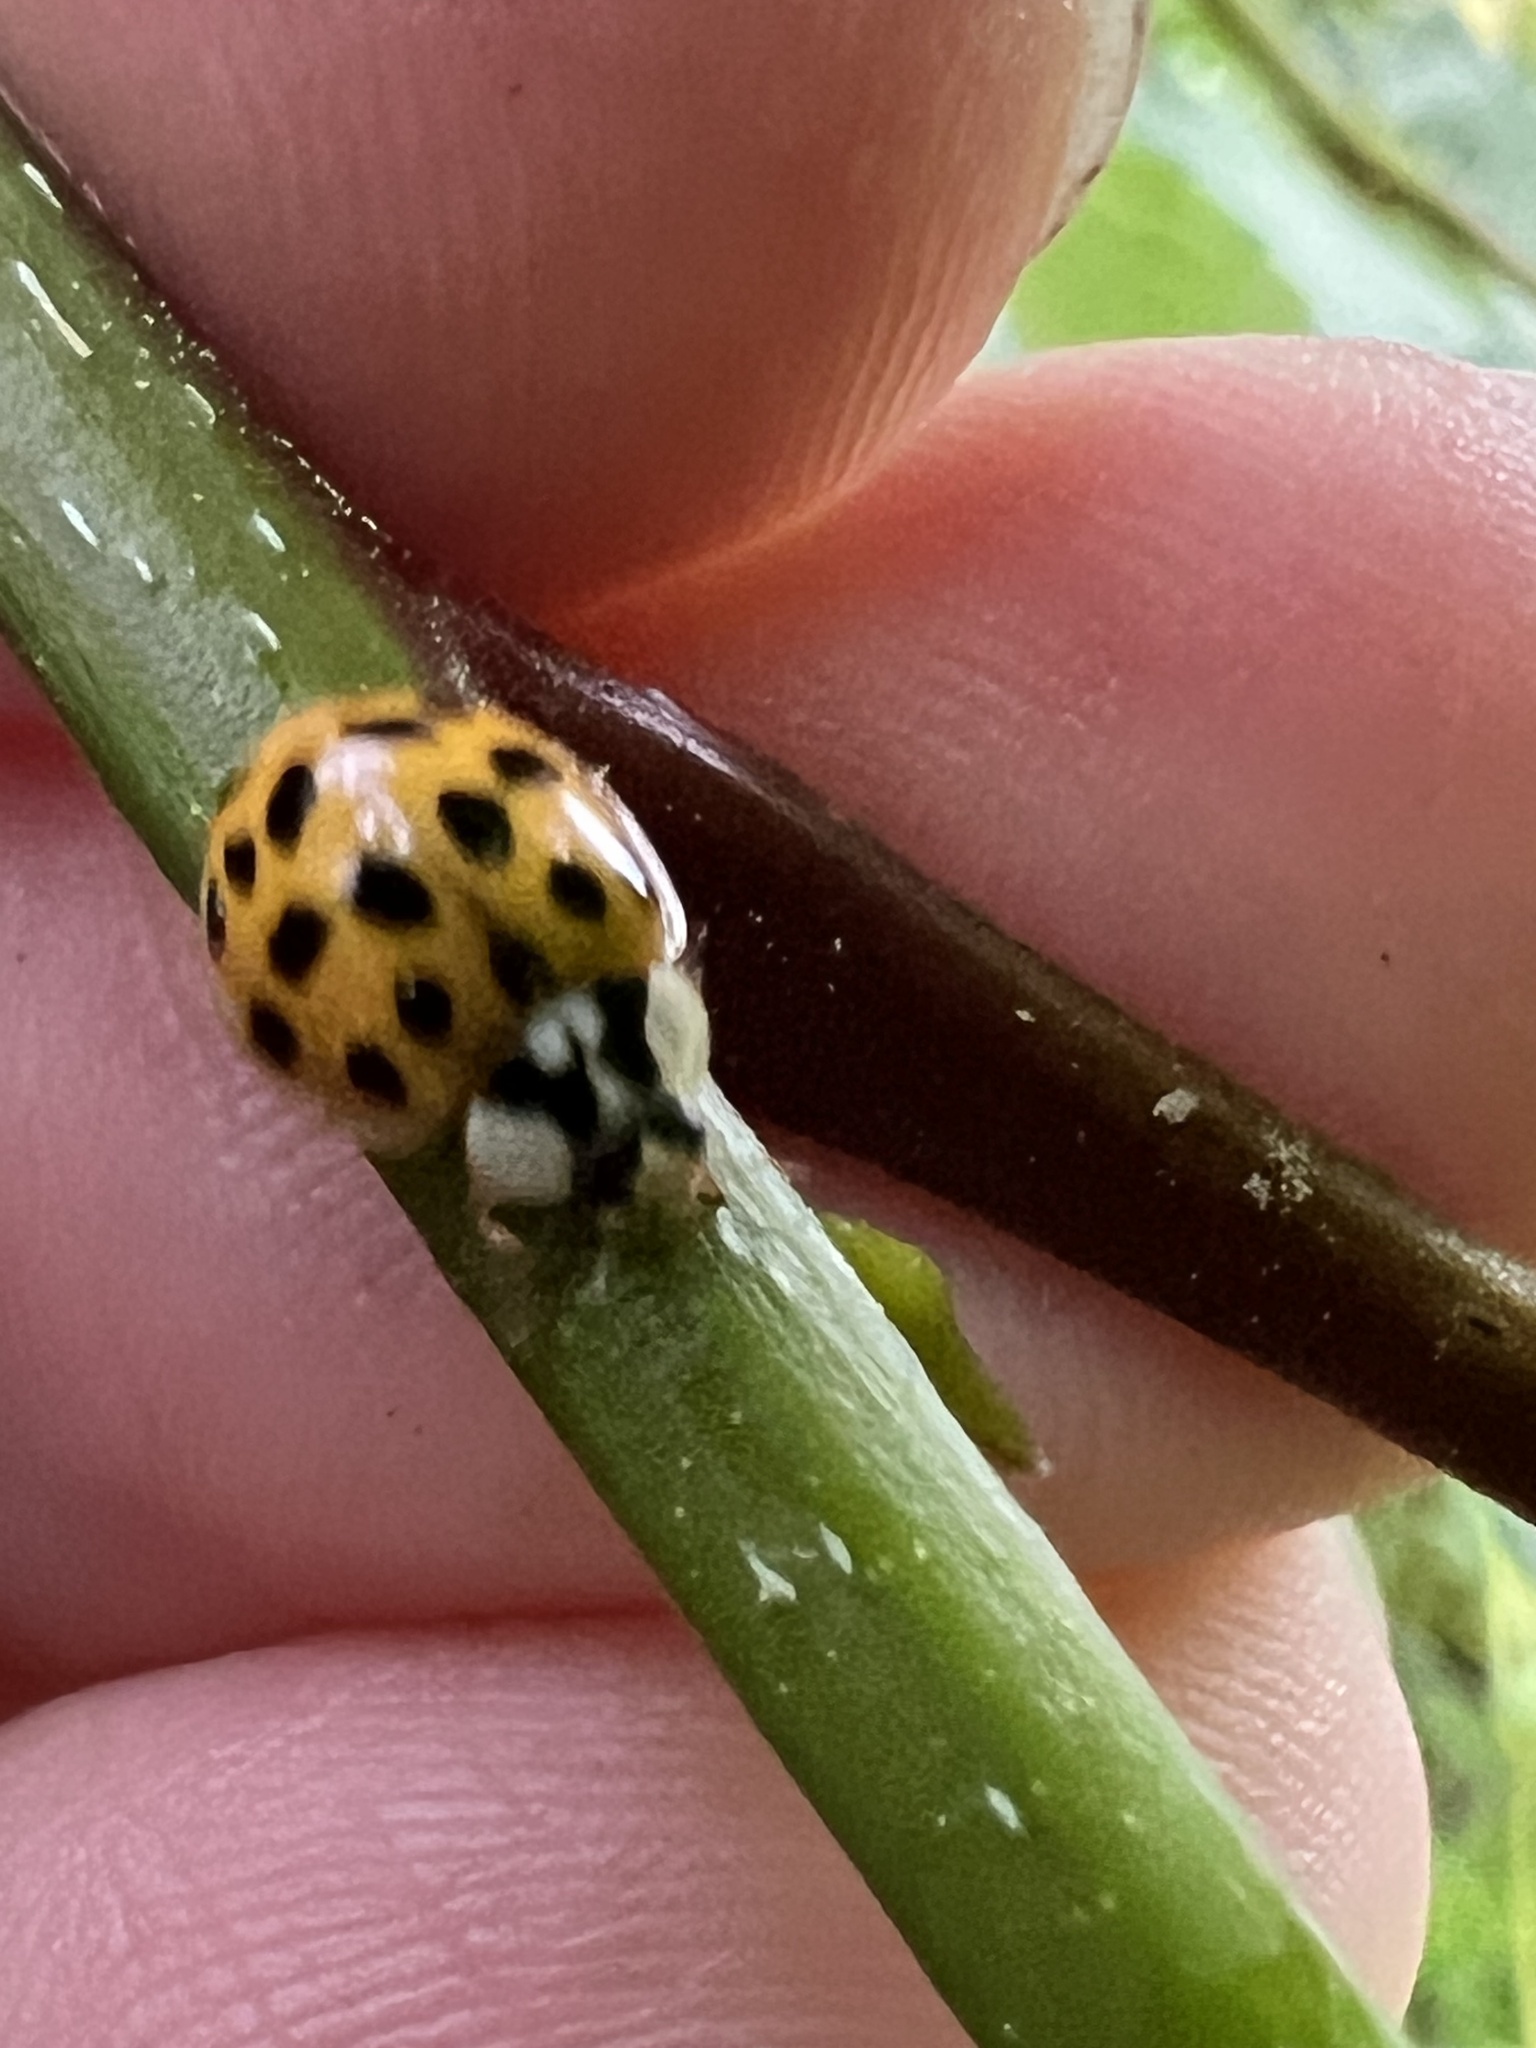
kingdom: Animalia
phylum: Arthropoda
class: Insecta
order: Coleoptera
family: Coccinellidae
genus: Harmonia
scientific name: Harmonia axyridis
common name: Harlequin ladybird
